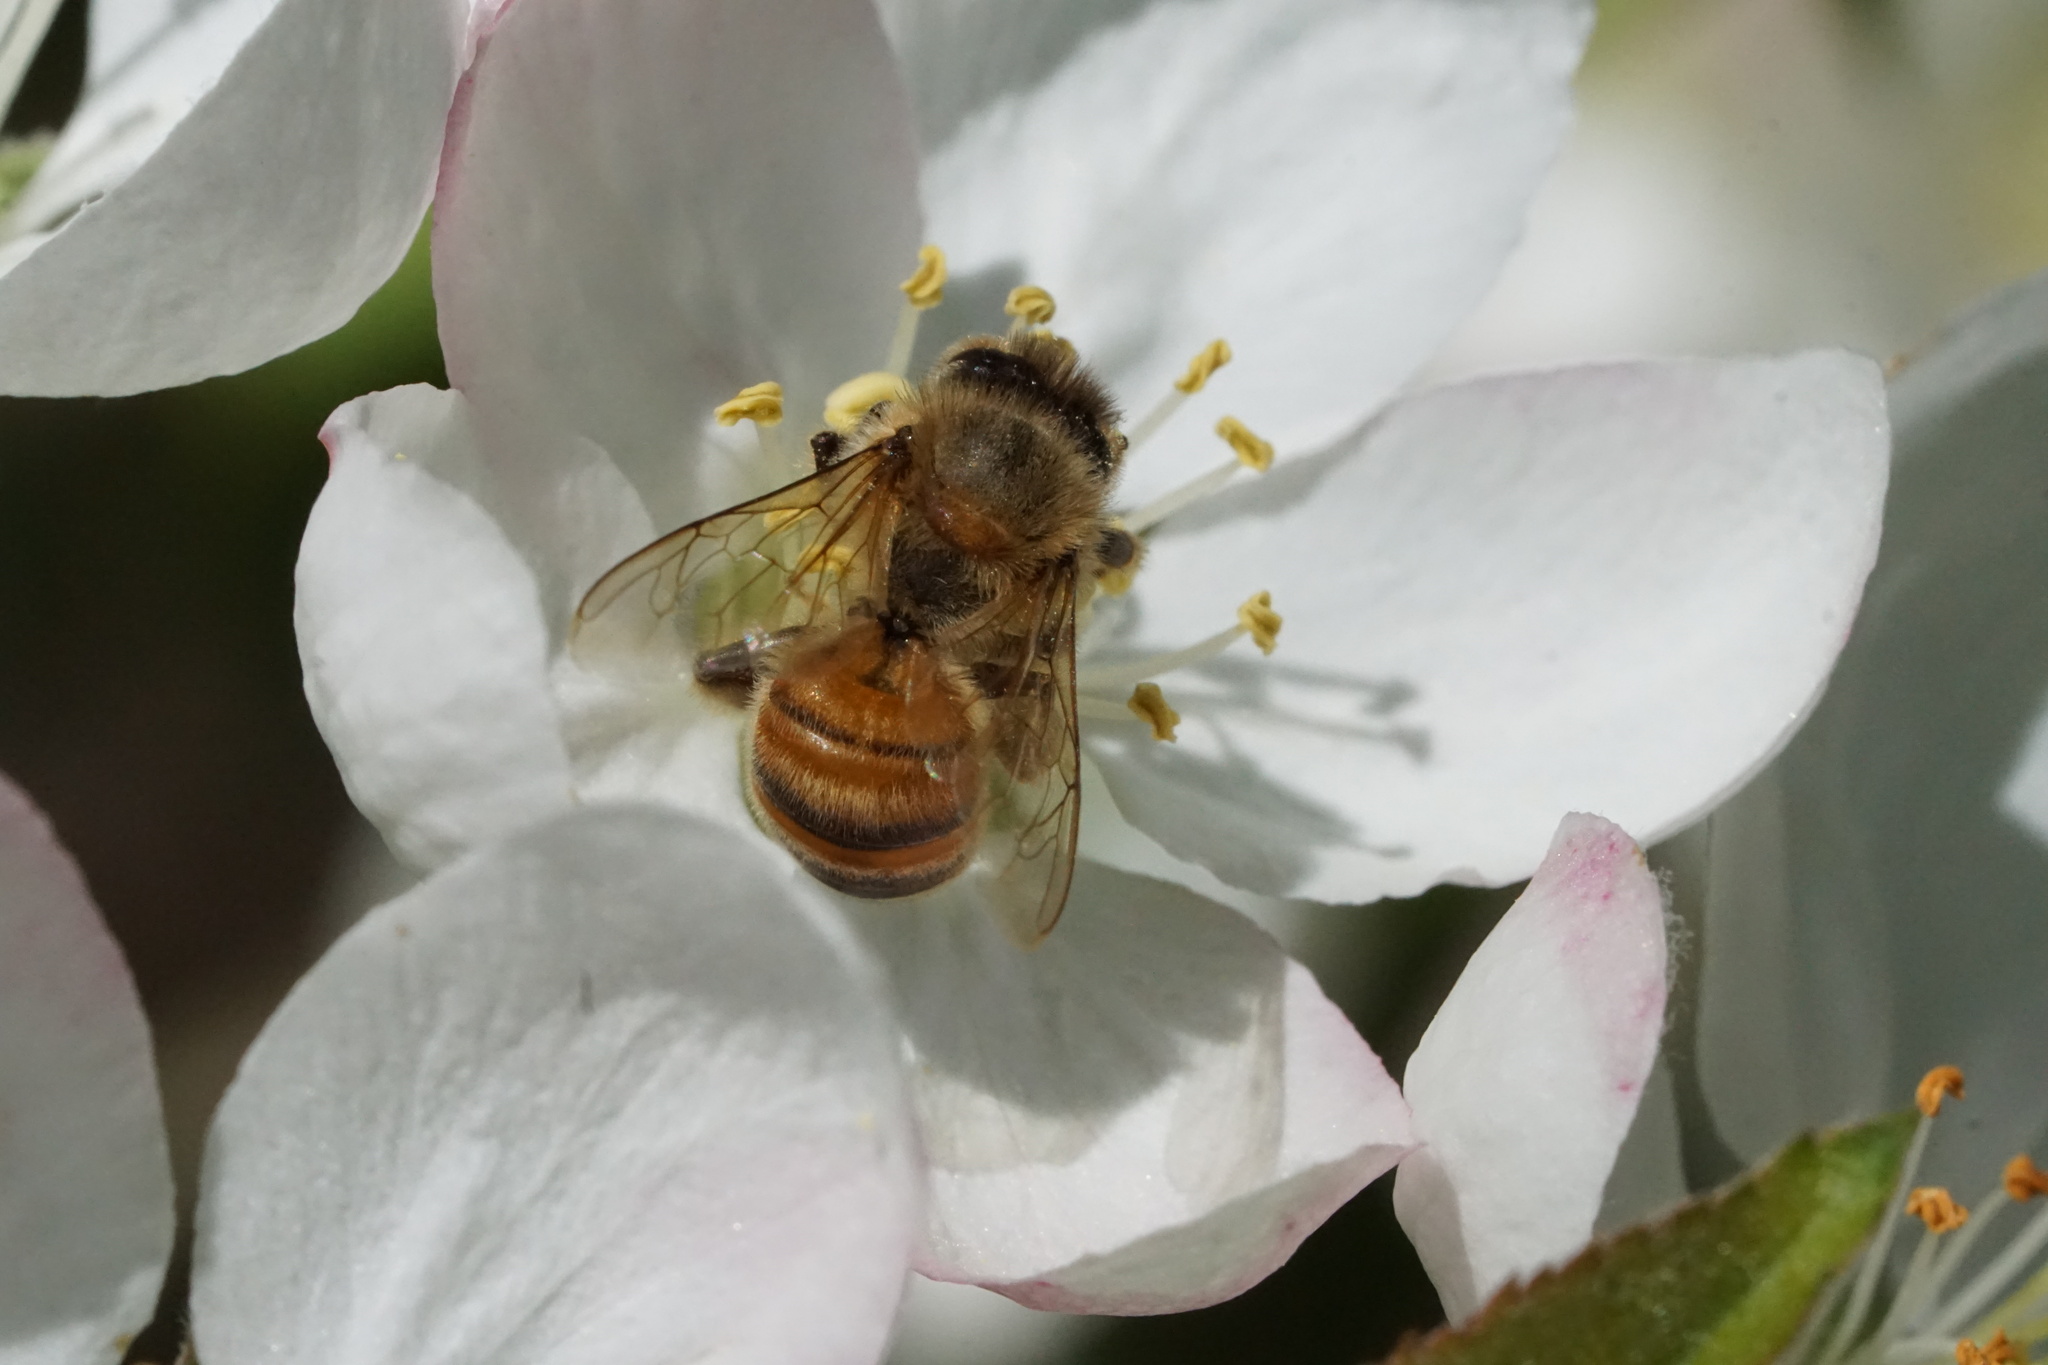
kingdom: Animalia
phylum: Arthropoda
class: Insecta
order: Hymenoptera
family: Apidae
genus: Apis
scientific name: Apis mellifera
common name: Honey bee
